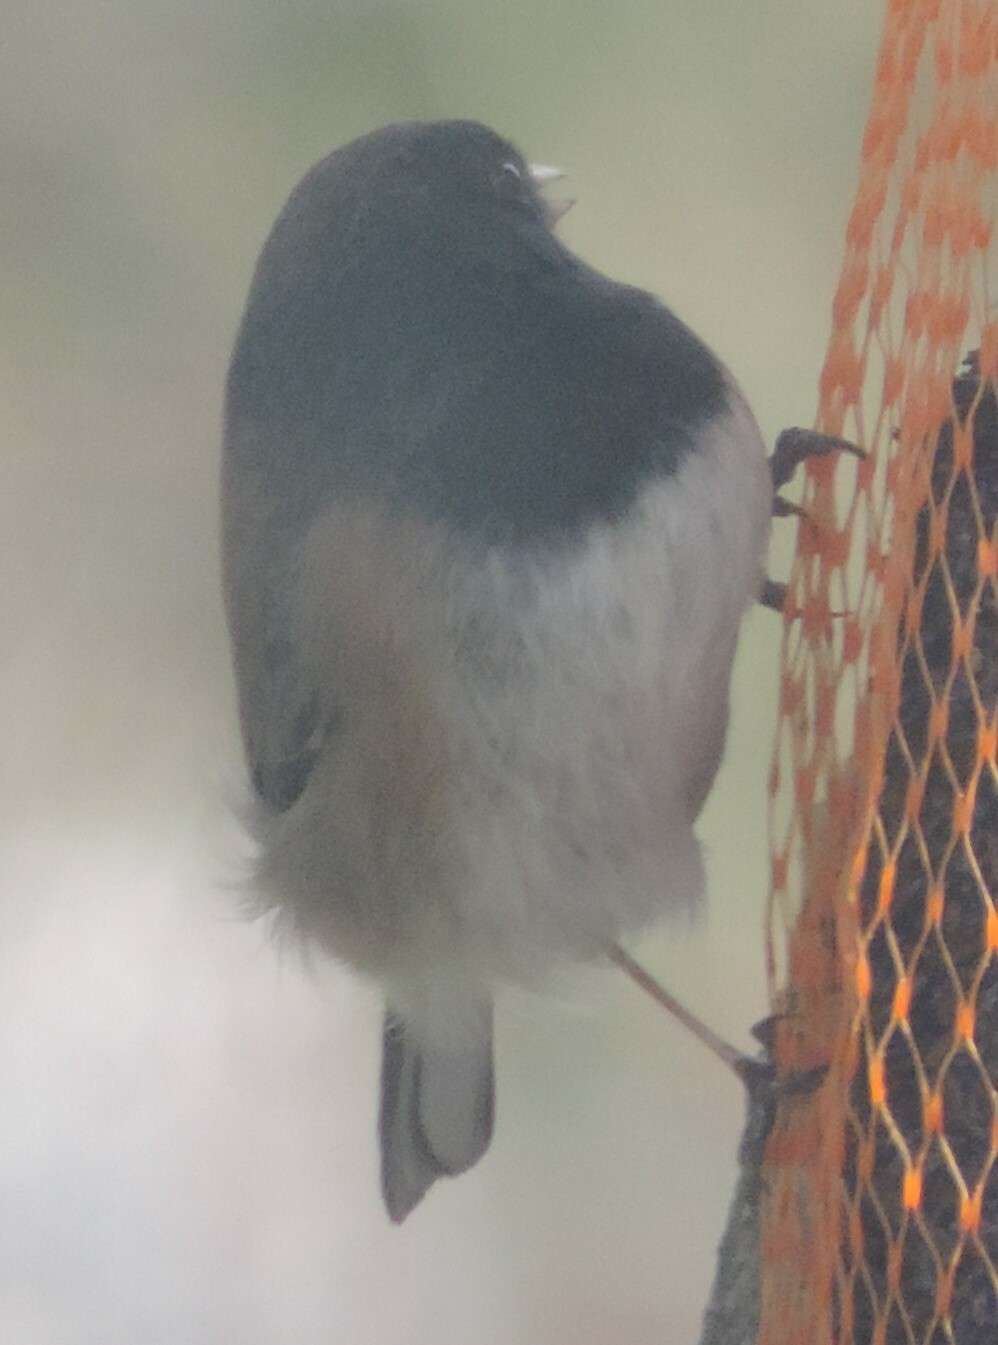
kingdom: Animalia
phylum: Chordata
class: Aves
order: Passeriformes
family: Passerellidae
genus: Junco
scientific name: Junco hyemalis
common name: Dark-eyed junco
